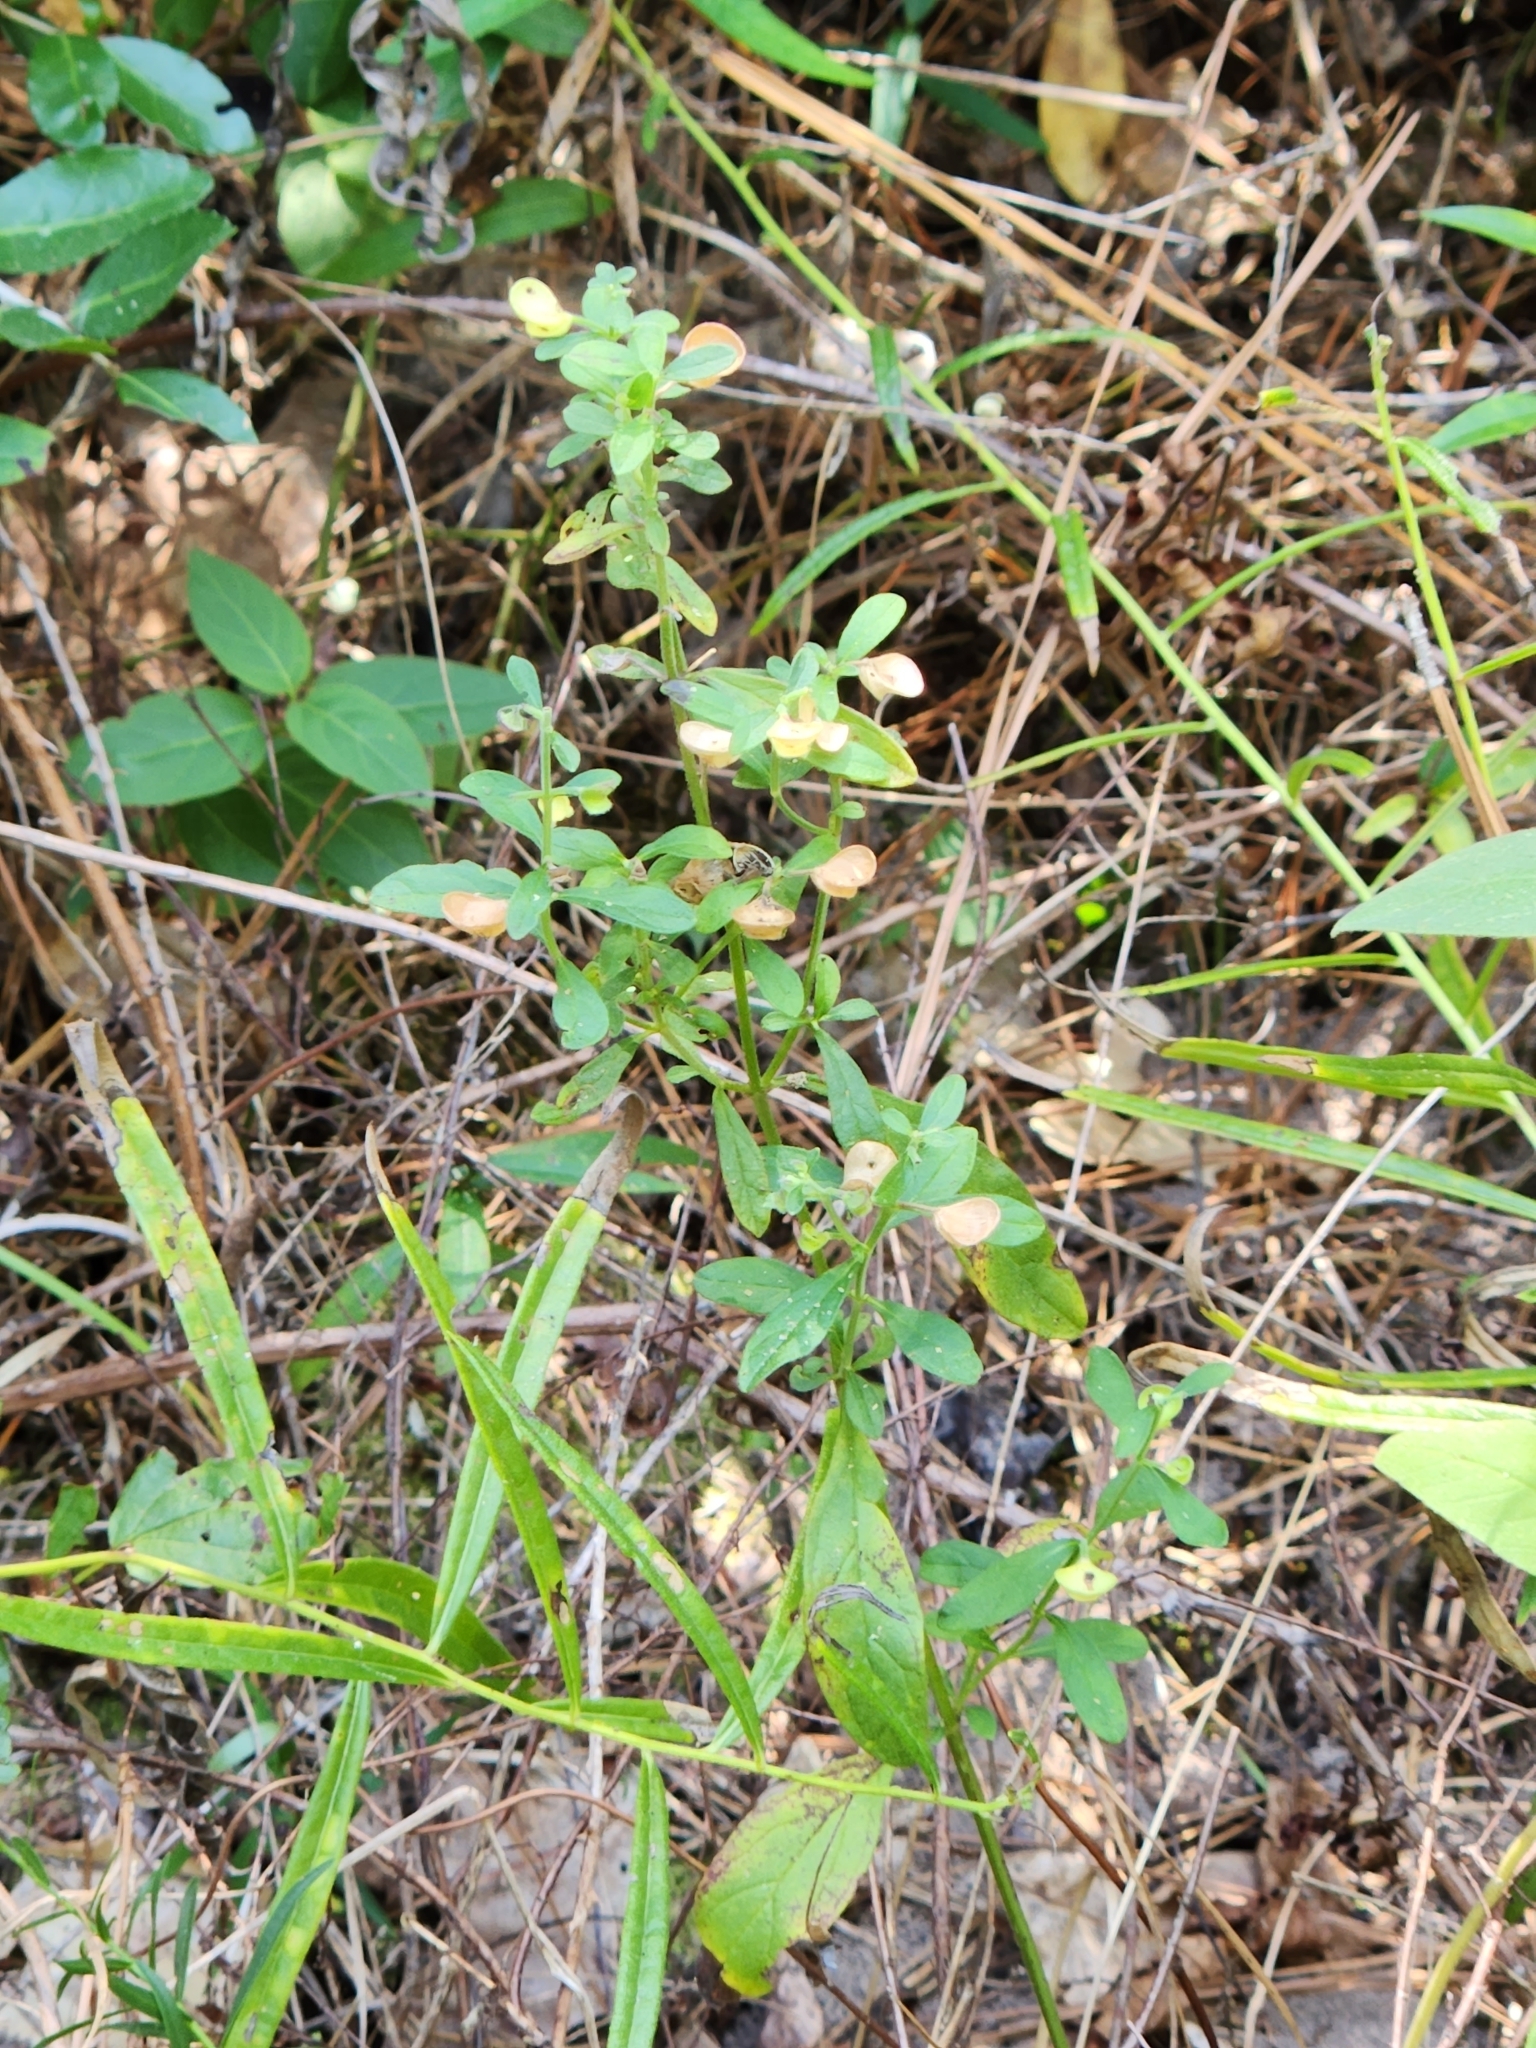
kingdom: Plantae
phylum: Tracheophyta
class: Magnoliopsida
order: Lamiales
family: Lamiaceae
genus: Scutellaria
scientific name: Scutellaria integrifolia
